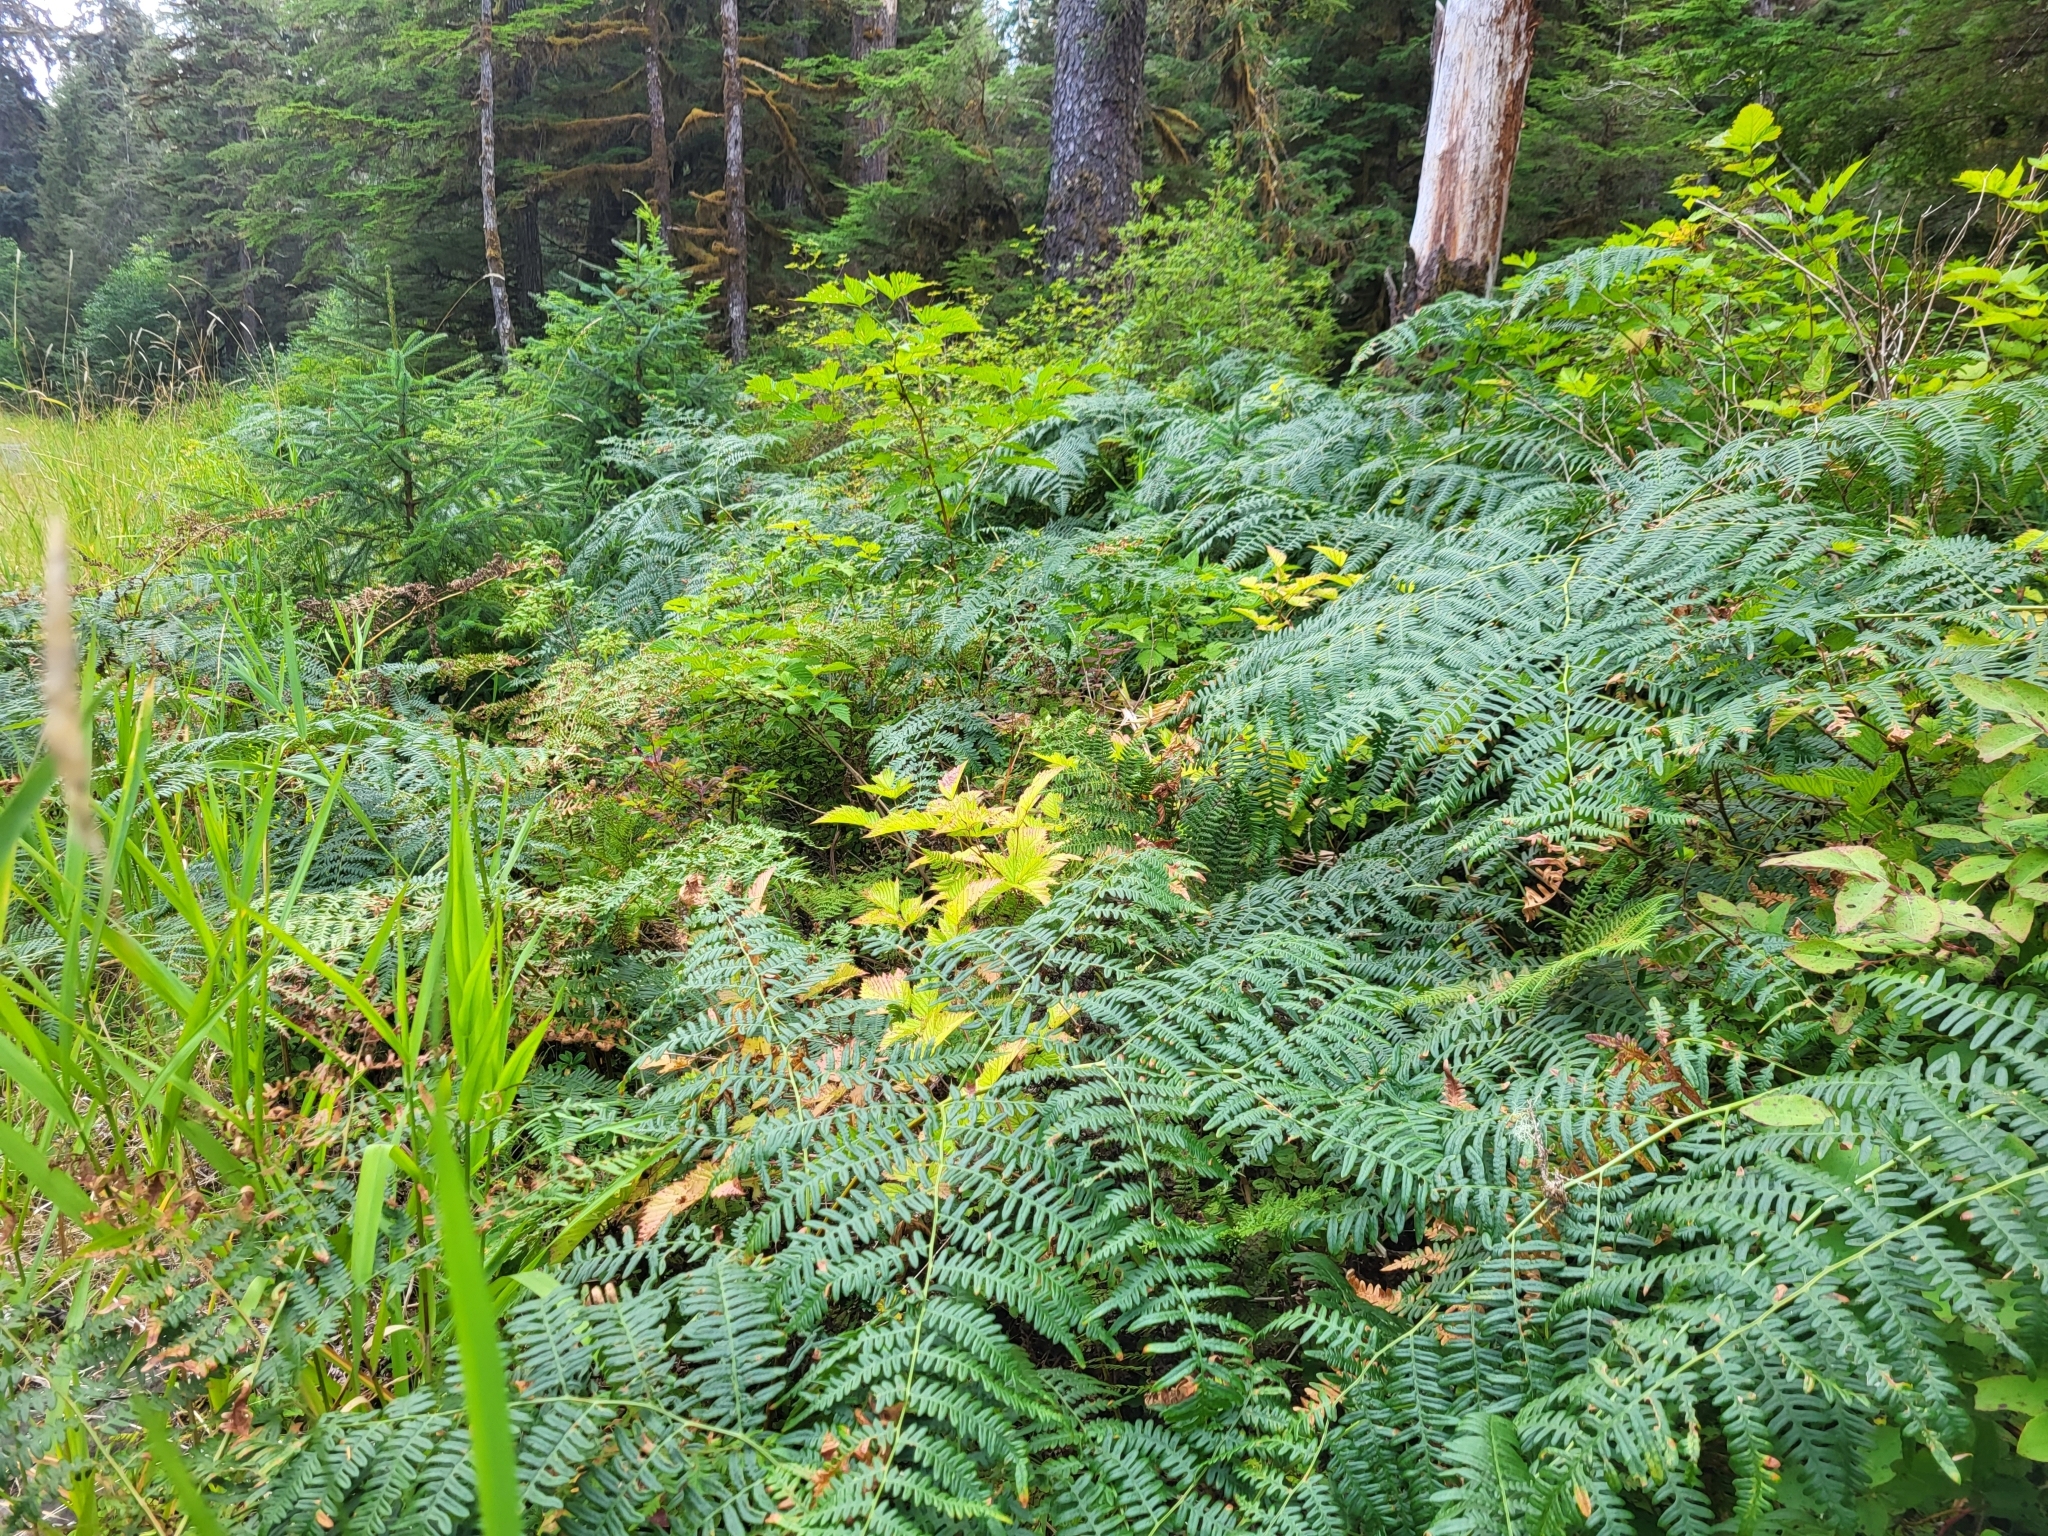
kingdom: Plantae
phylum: Tracheophyta
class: Polypodiopsida
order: Polypodiales
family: Dennstaedtiaceae
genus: Pteridium
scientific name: Pteridium aquilinum
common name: Bracken
